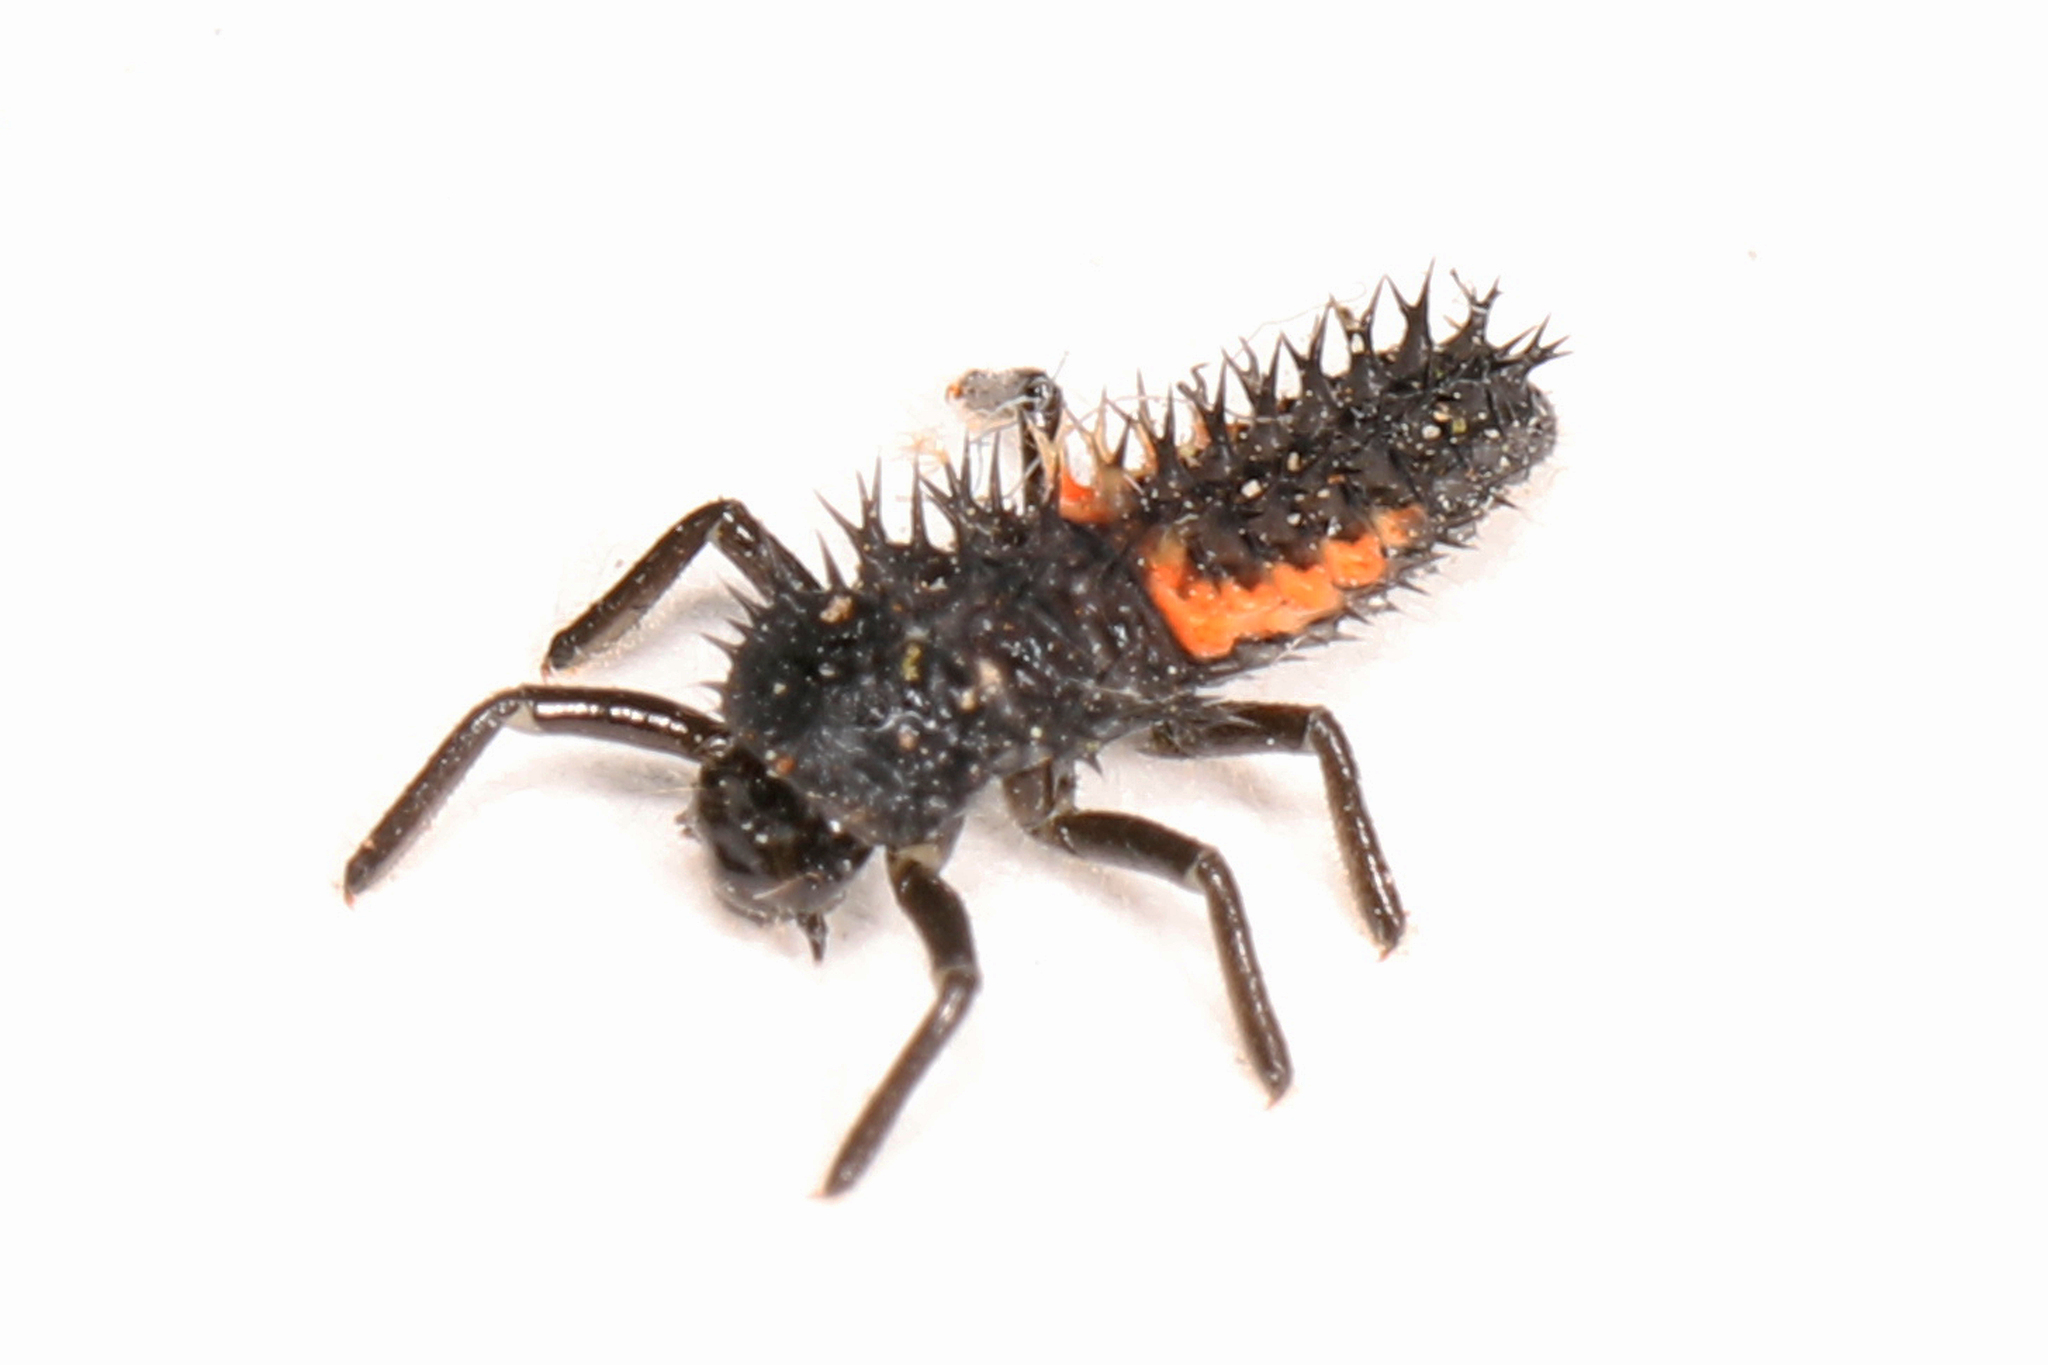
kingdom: Animalia
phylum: Arthropoda
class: Insecta
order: Coleoptera
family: Coccinellidae
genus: Harmonia
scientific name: Harmonia axyridis
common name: Harlequin ladybird
